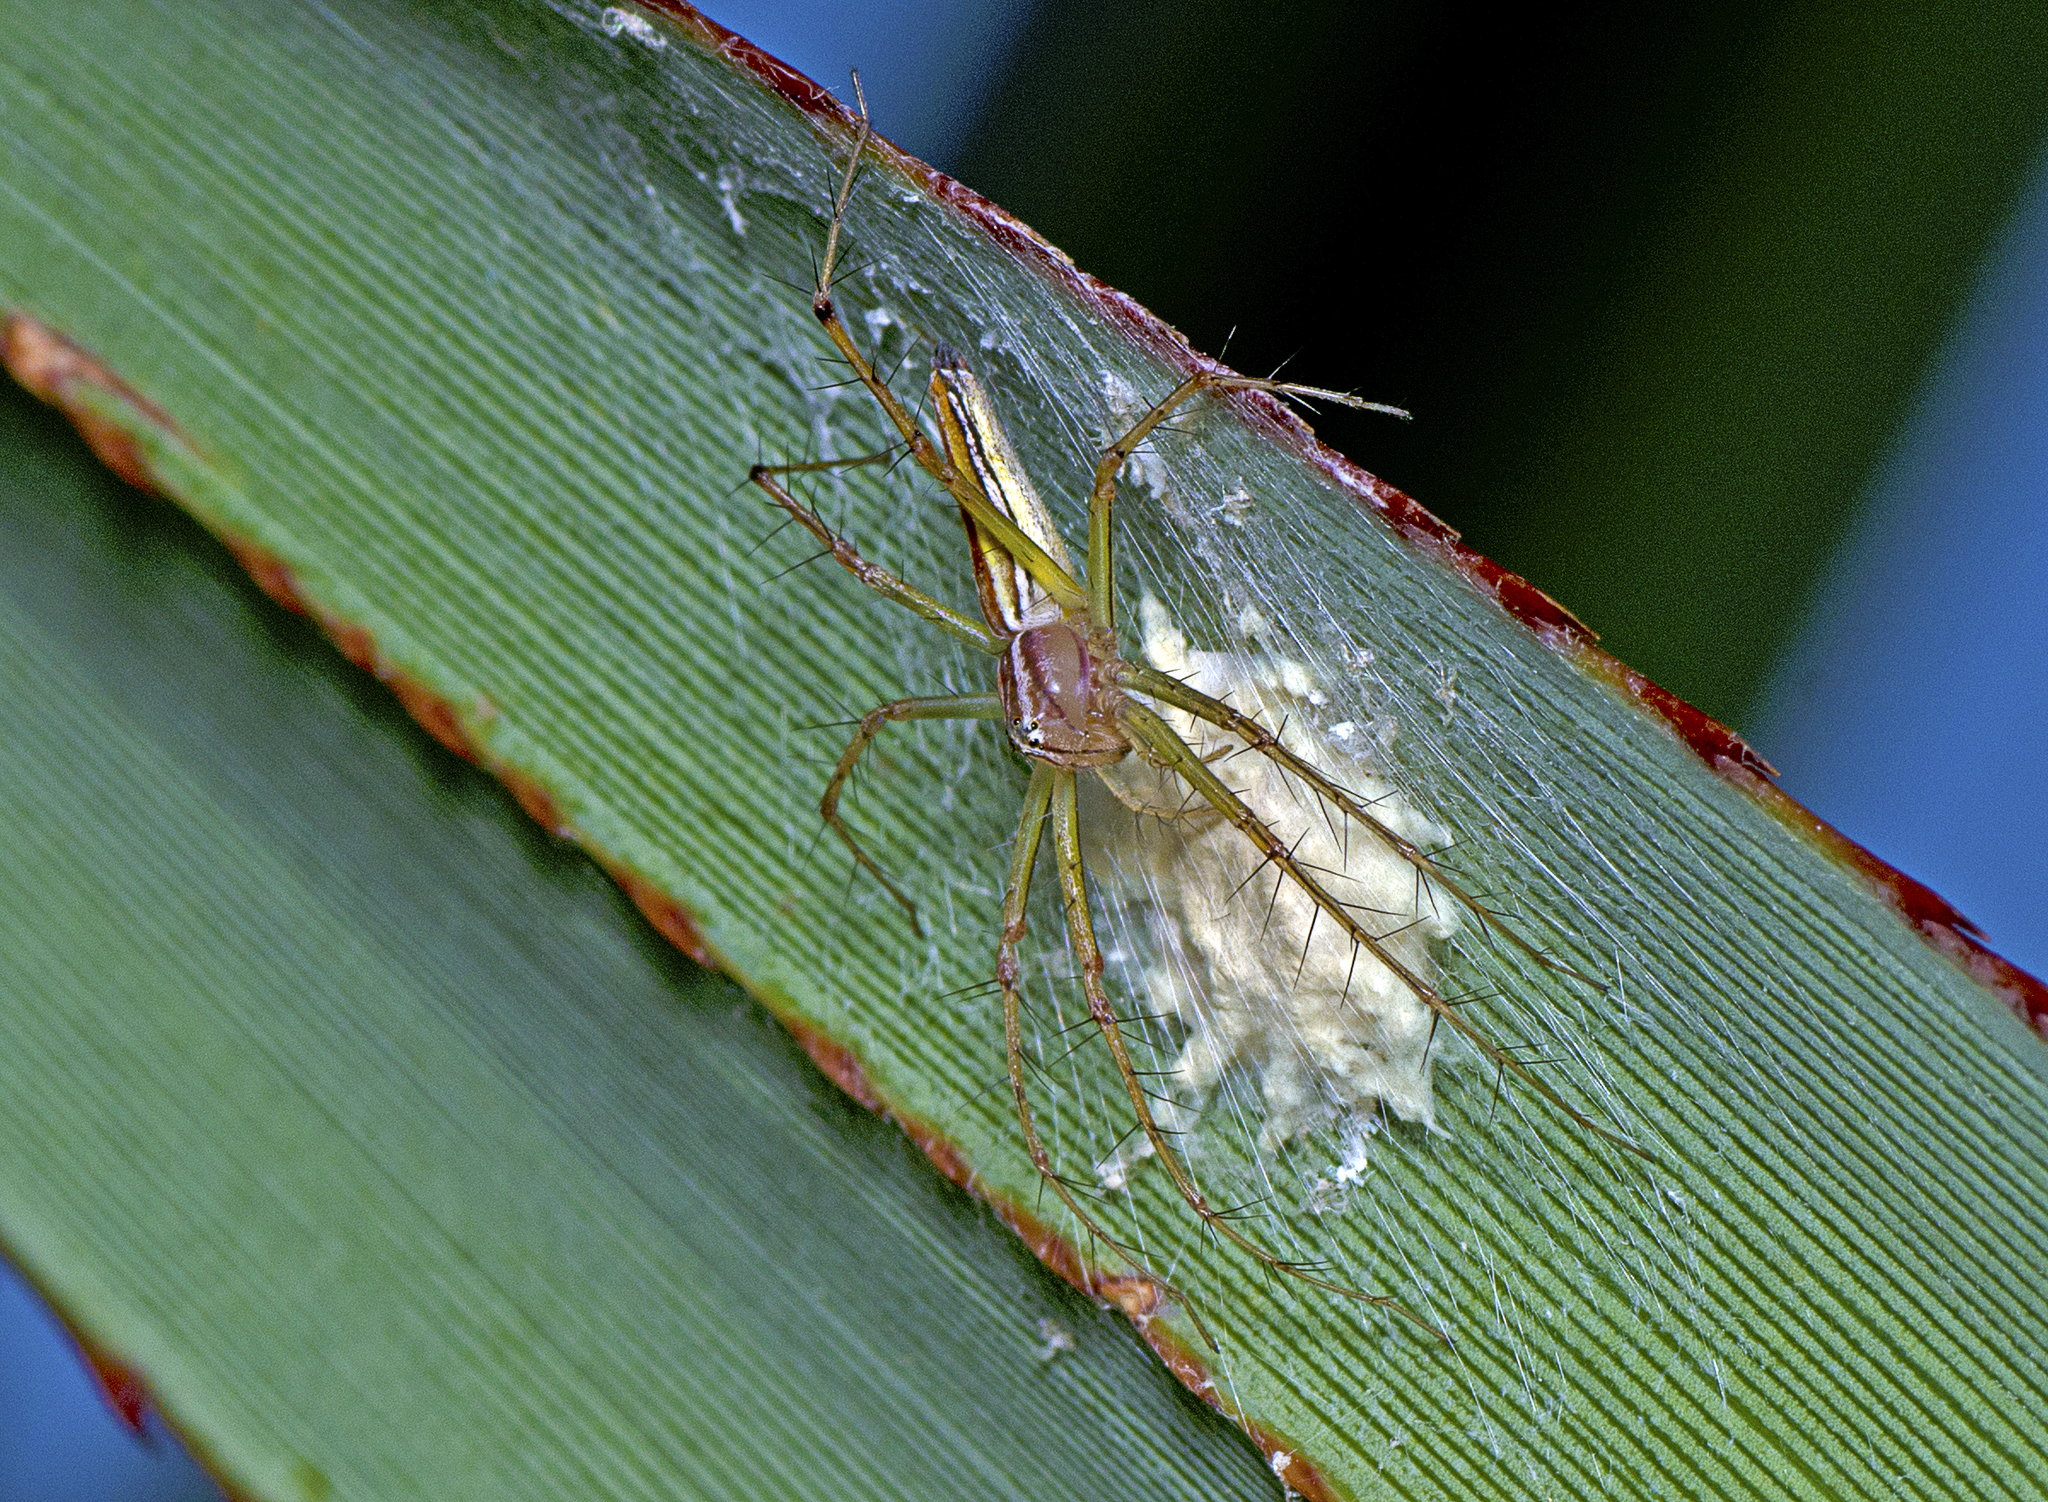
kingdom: Animalia
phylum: Arthropoda
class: Arachnida
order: Araneae
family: Oxyopidae
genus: Oxyopes
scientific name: Oxyopes macilentus
